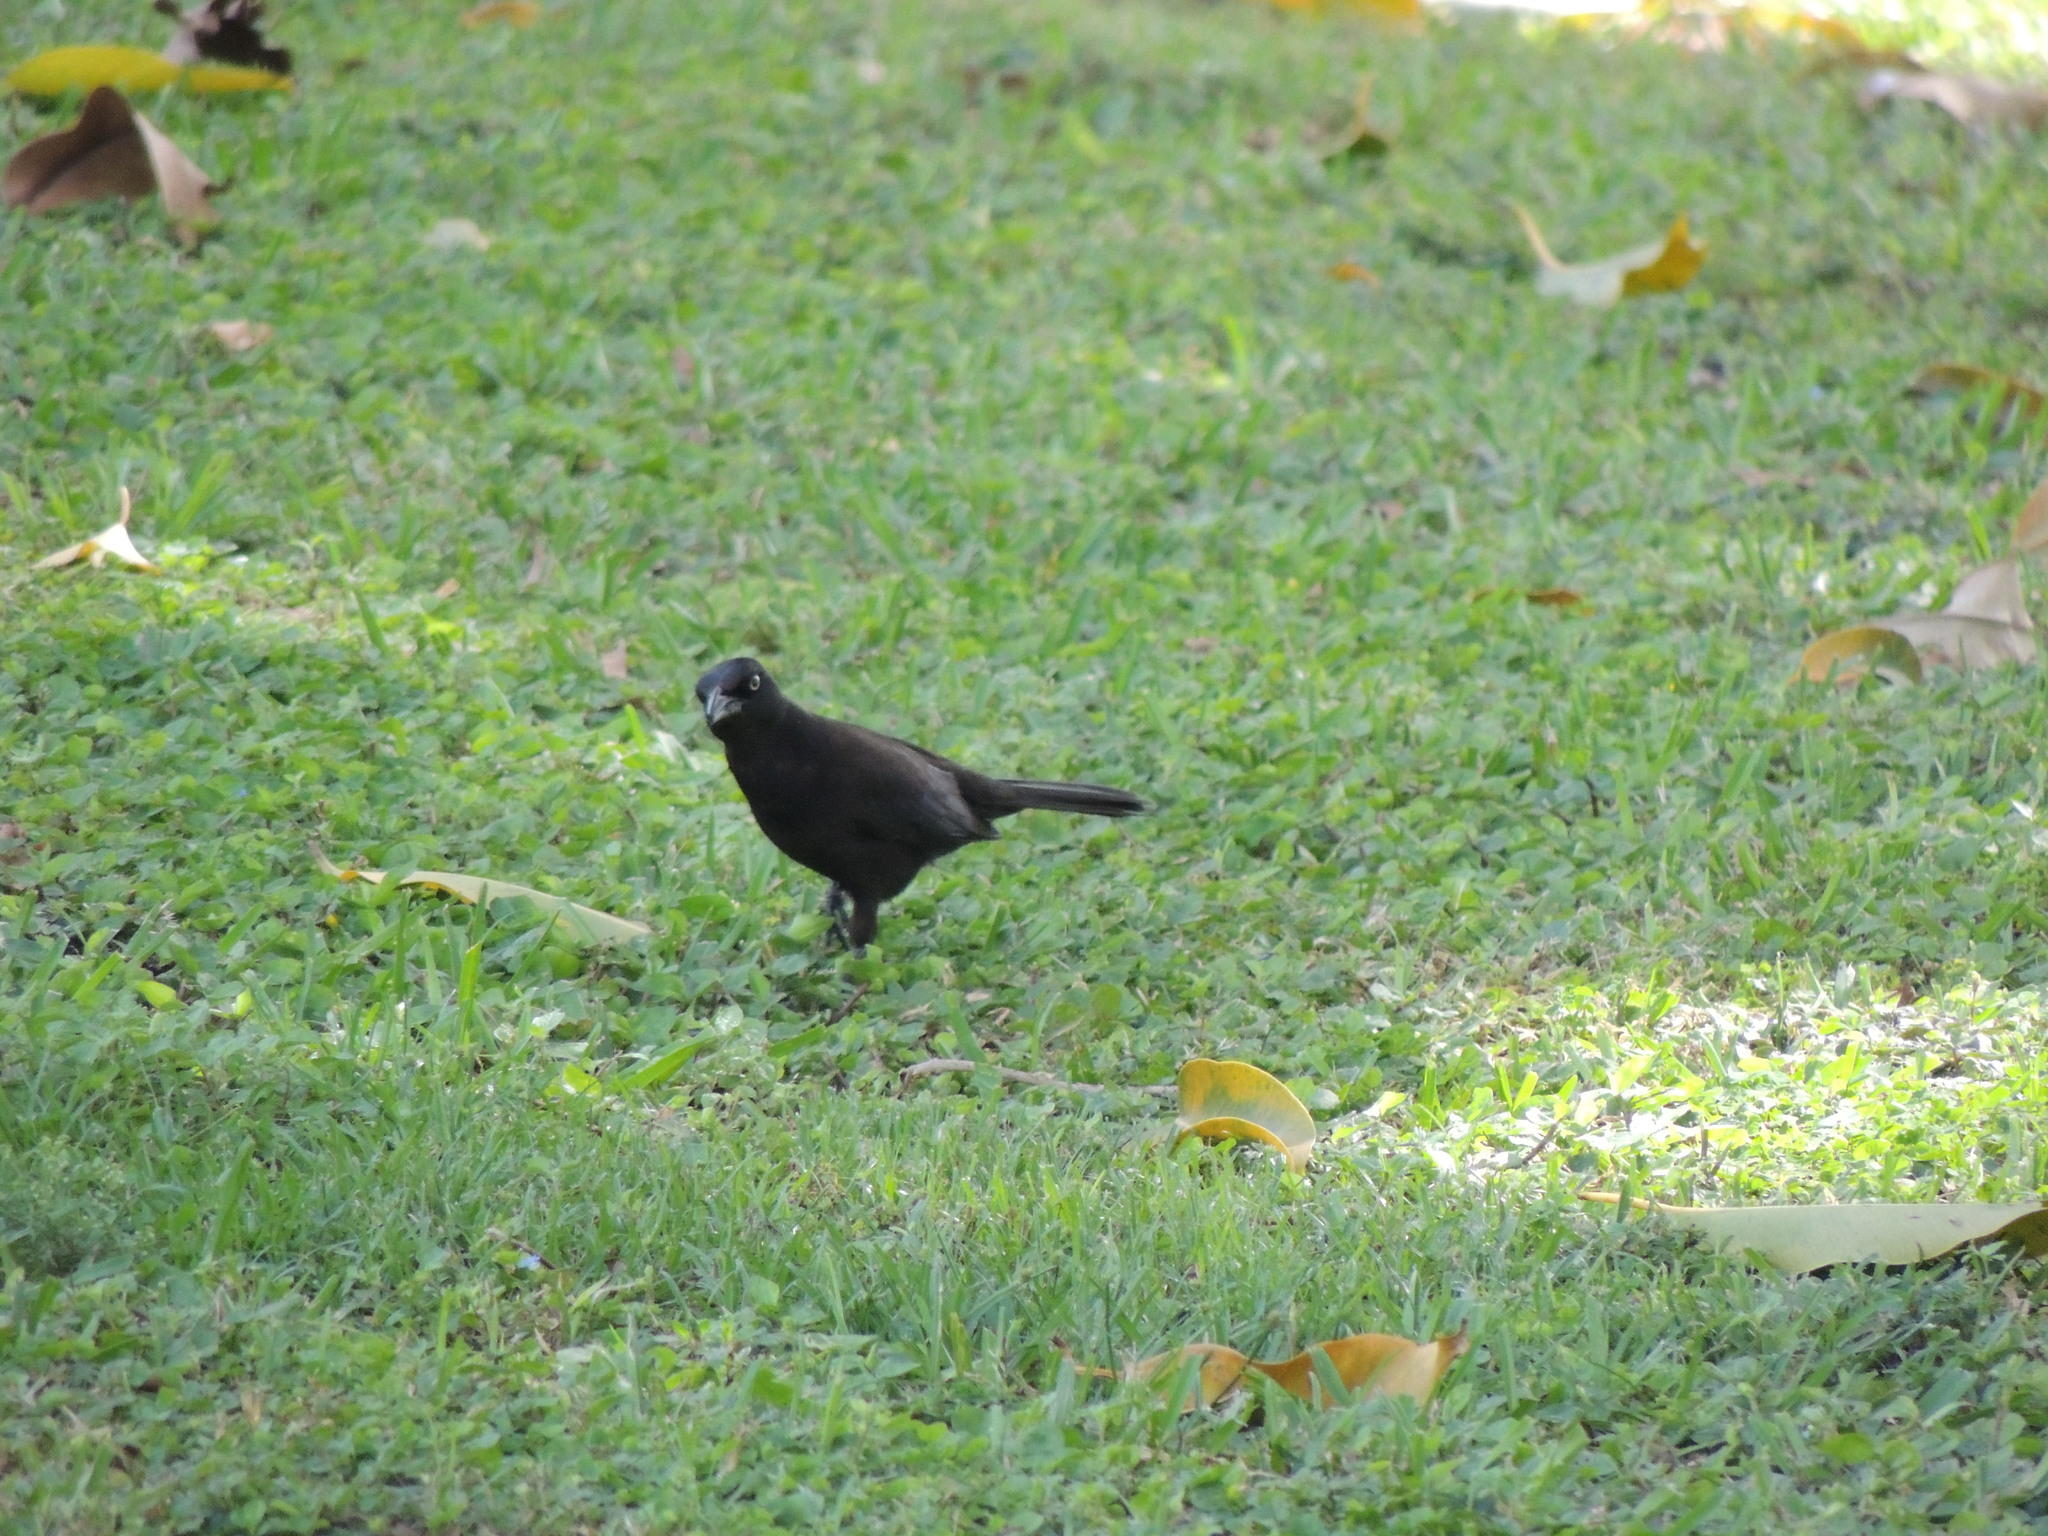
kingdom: Animalia
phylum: Chordata
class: Aves
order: Passeriformes
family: Icteridae
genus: Quiscalus
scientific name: Quiscalus quiscula
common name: Common grackle
